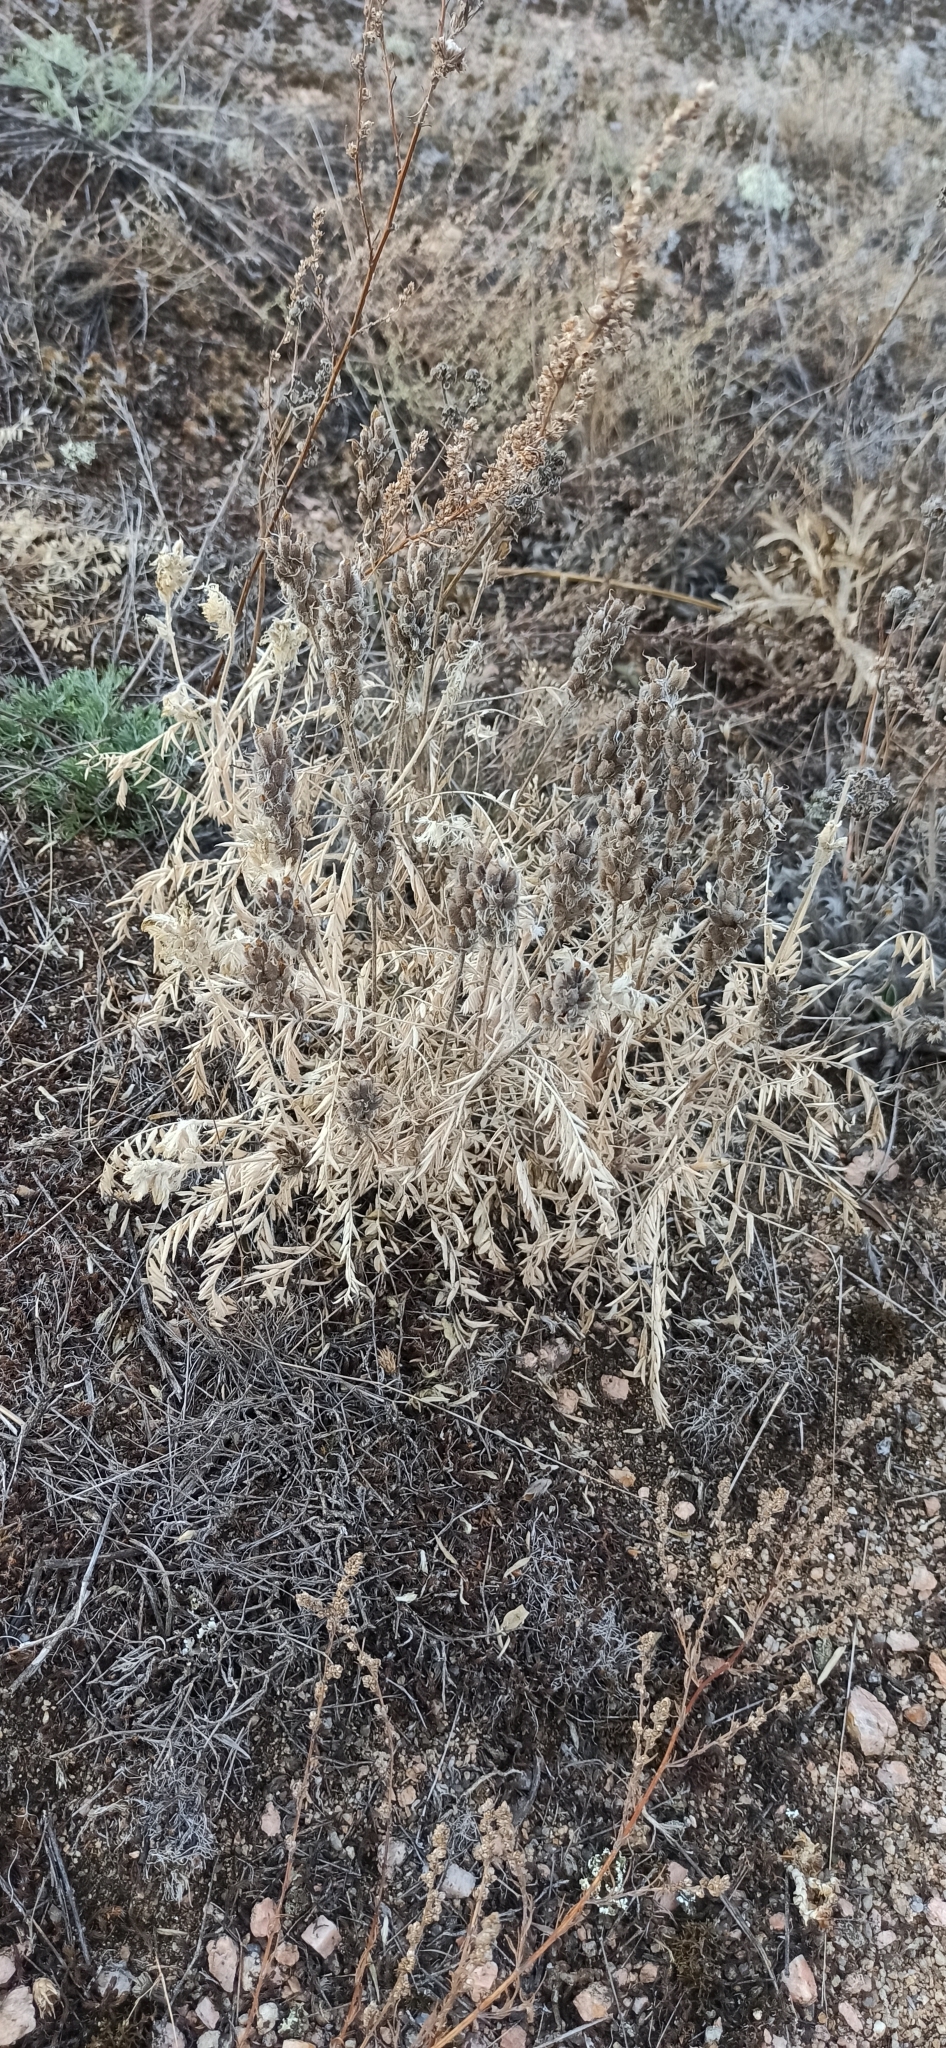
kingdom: Plantae
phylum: Tracheophyta
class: Magnoliopsida
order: Fabales
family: Fabaceae
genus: Oxytropis
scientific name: Oxytropis pilosa
